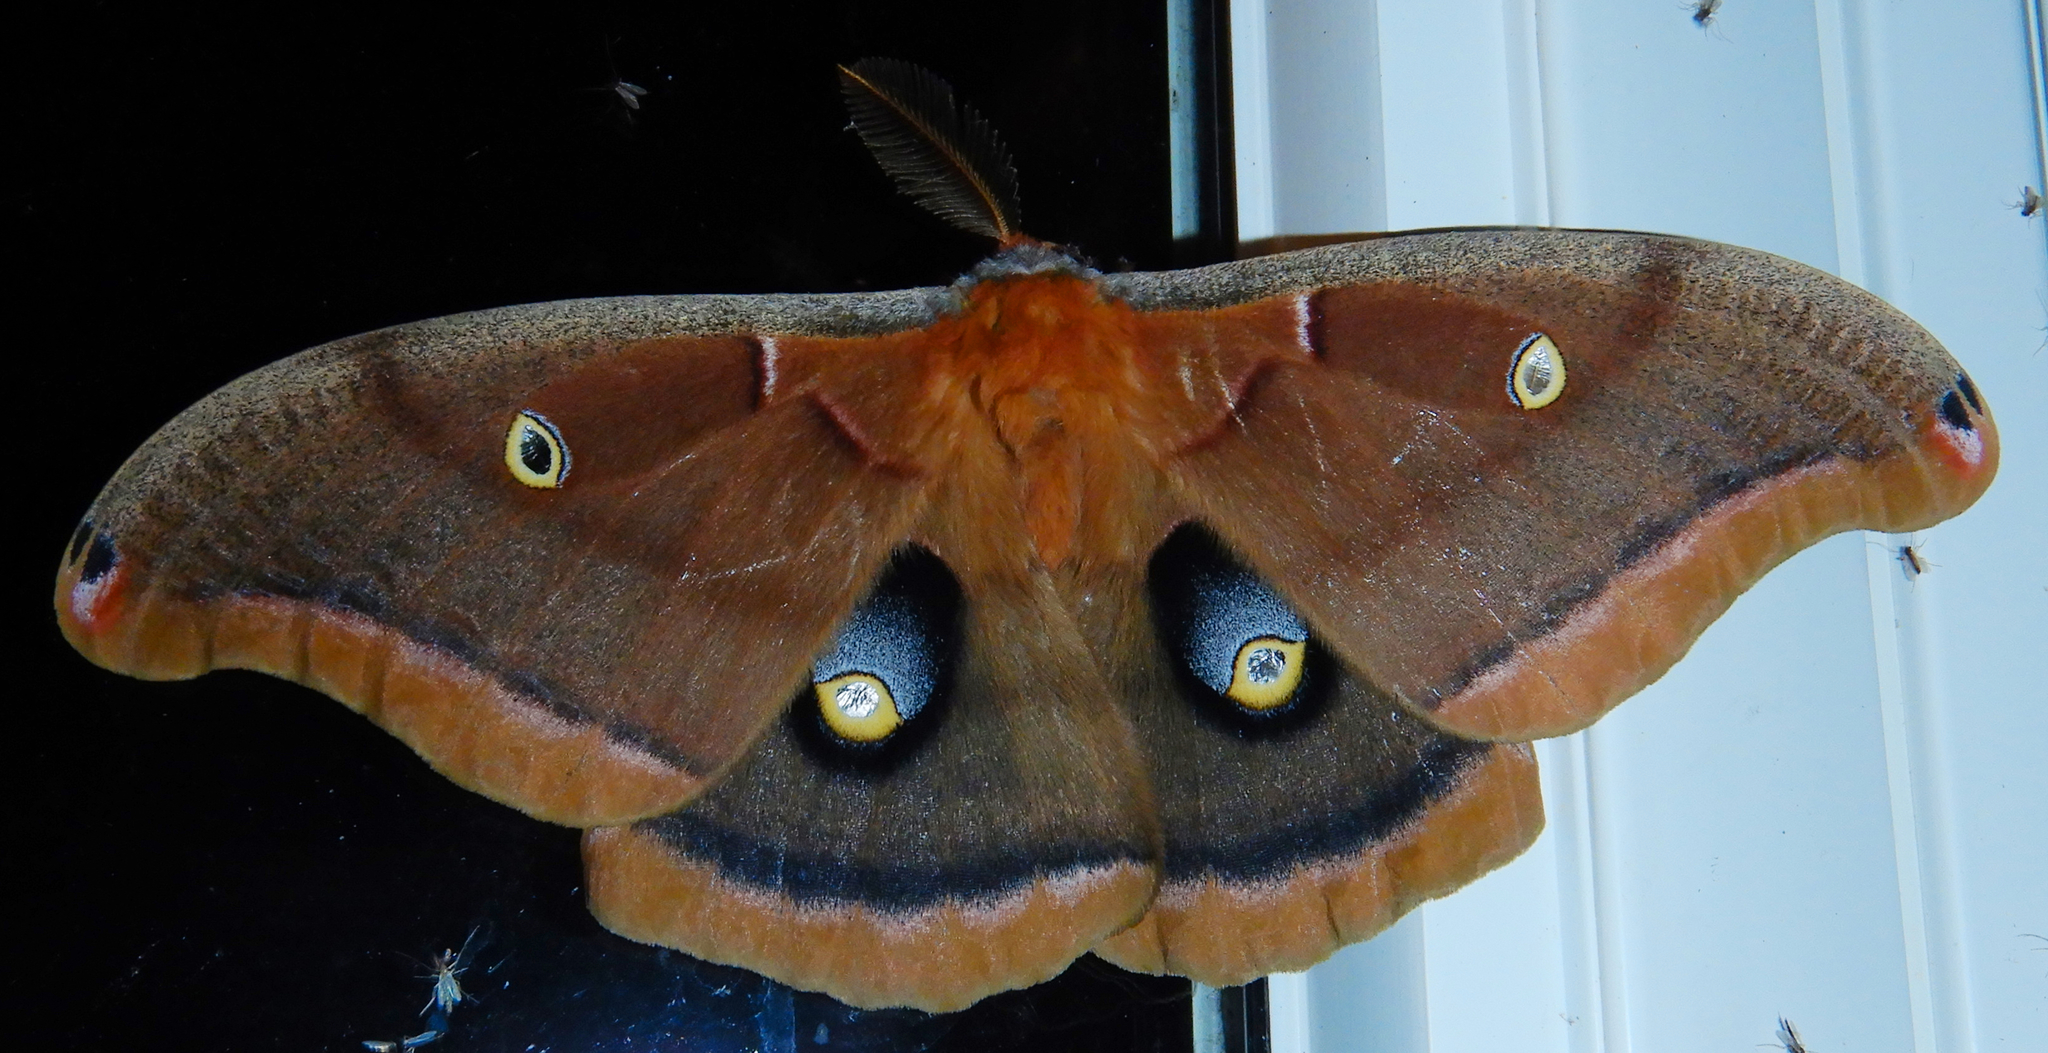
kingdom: Animalia
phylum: Arthropoda
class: Insecta
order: Lepidoptera
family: Saturniidae
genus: Antheraea
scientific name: Antheraea polyphemus
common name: Polyphemus moth
